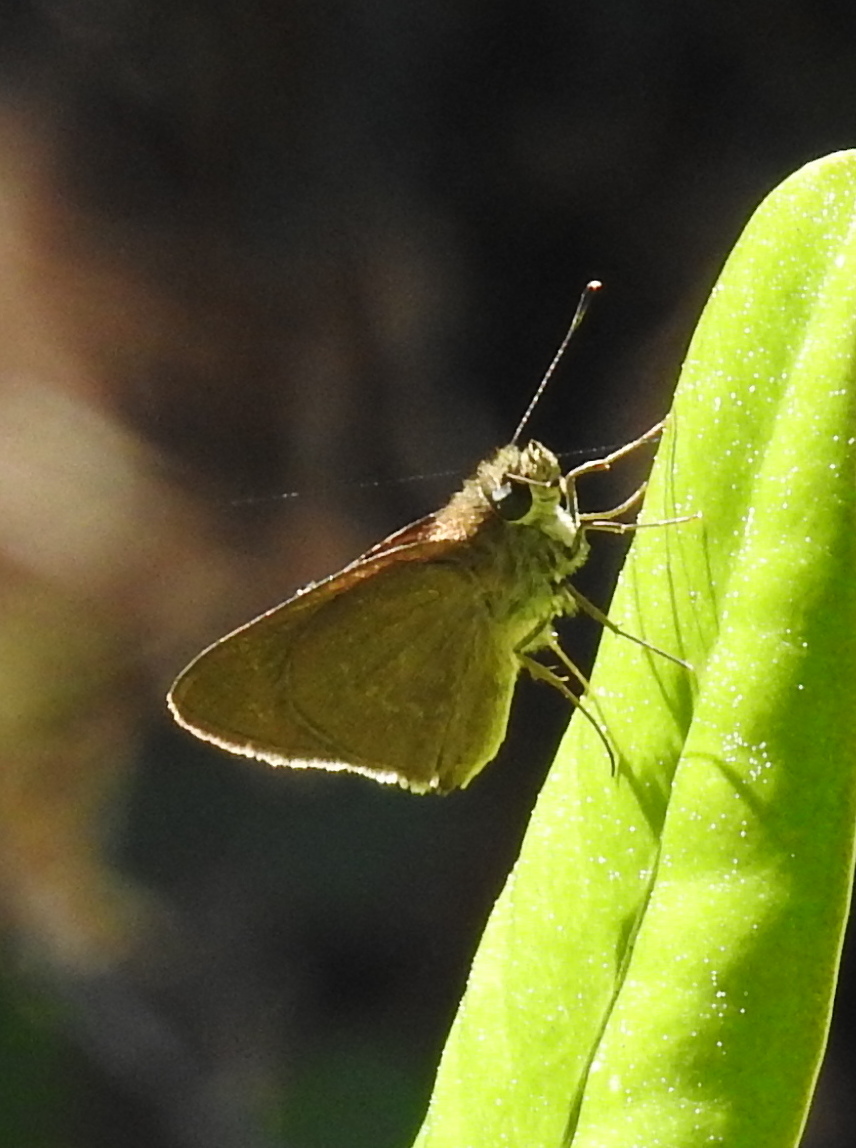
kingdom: Animalia
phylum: Arthropoda
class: Insecta
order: Lepidoptera
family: Hesperiidae
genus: Cymaenes
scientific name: Cymaenes tripunctus
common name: Dingy dotted skipper
